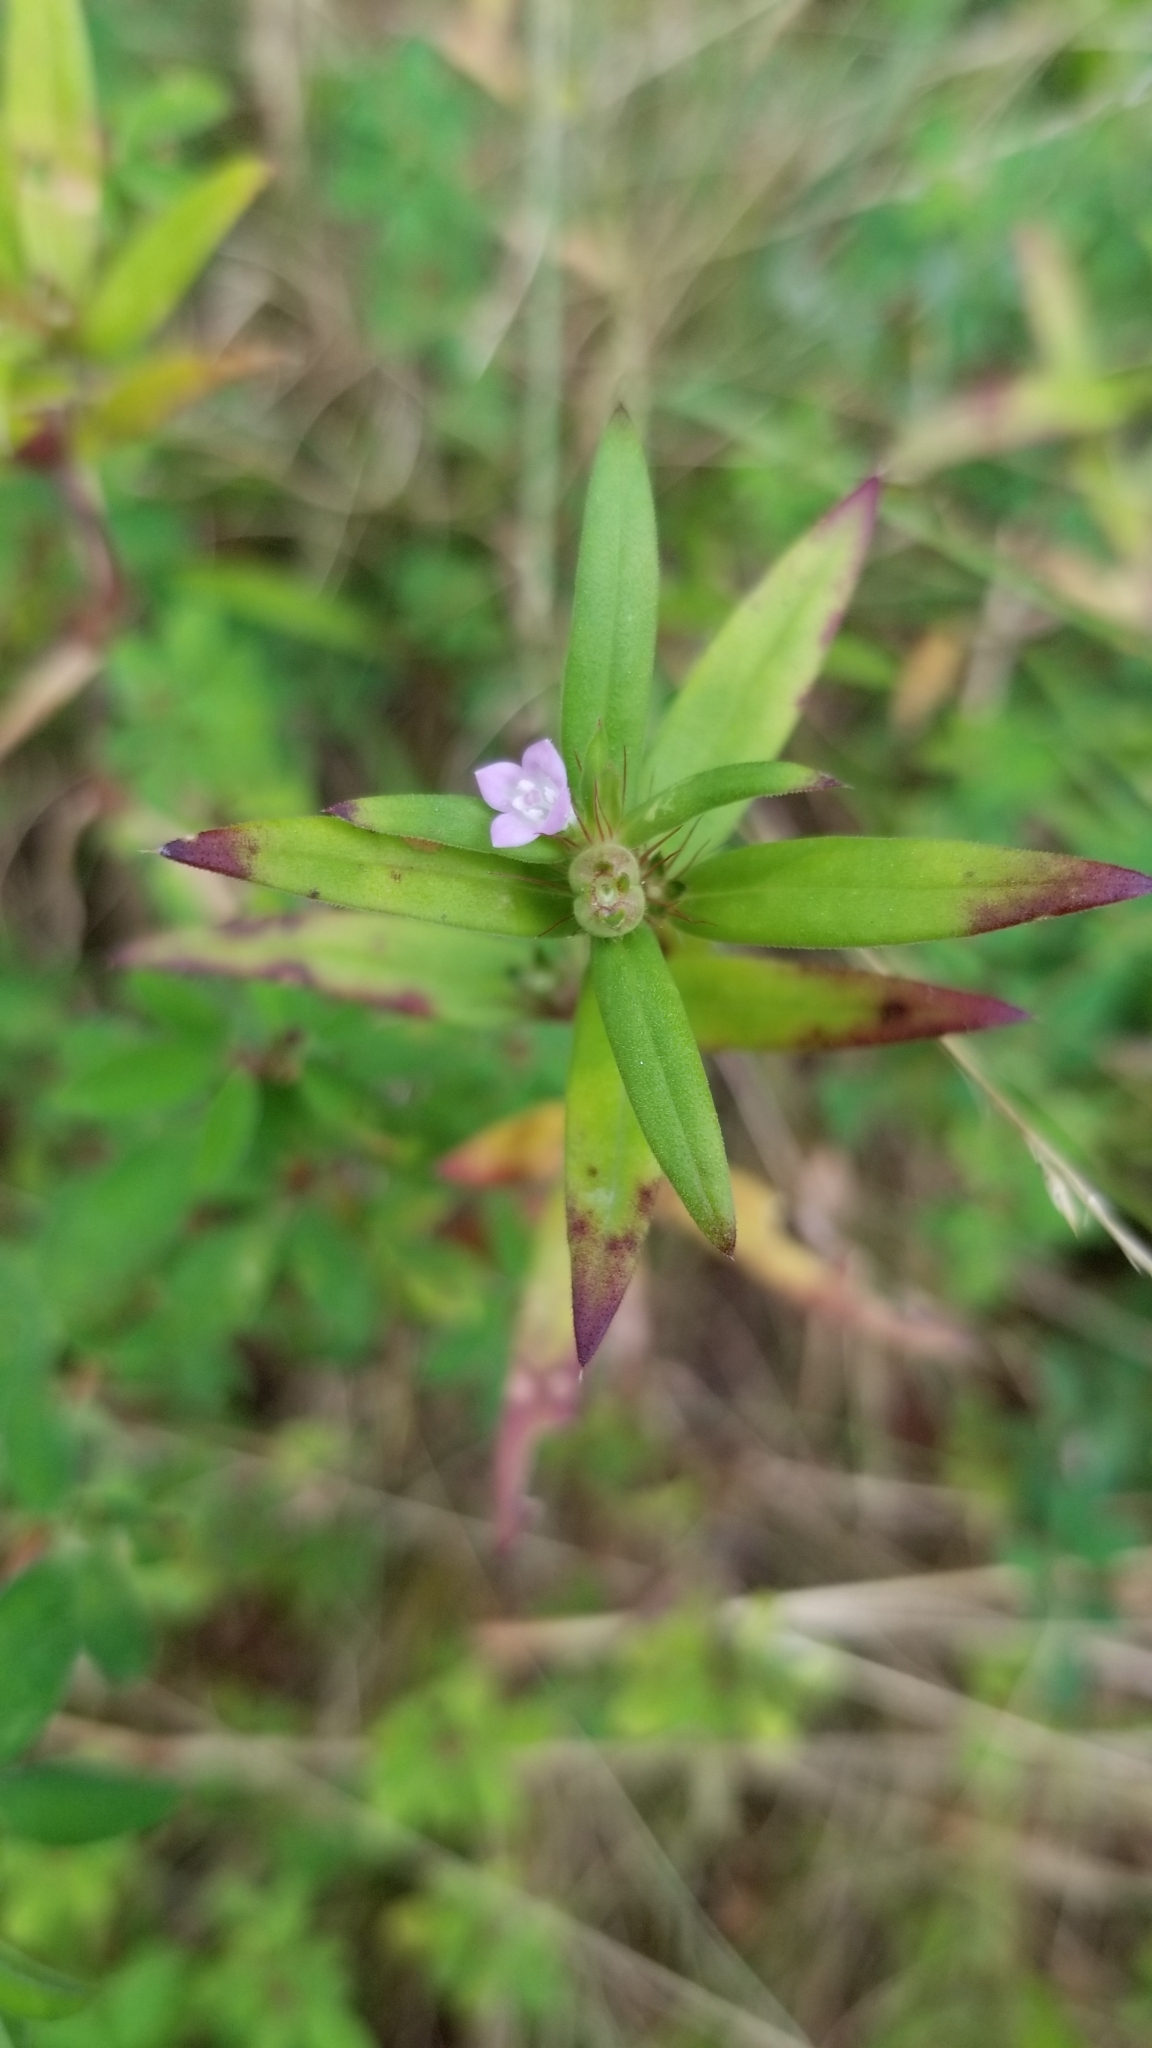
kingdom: Plantae
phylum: Tracheophyta
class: Magnoliopsida
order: Gentianales
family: Rubiaceae
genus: Hexasepalum
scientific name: Hexasepalum teres
